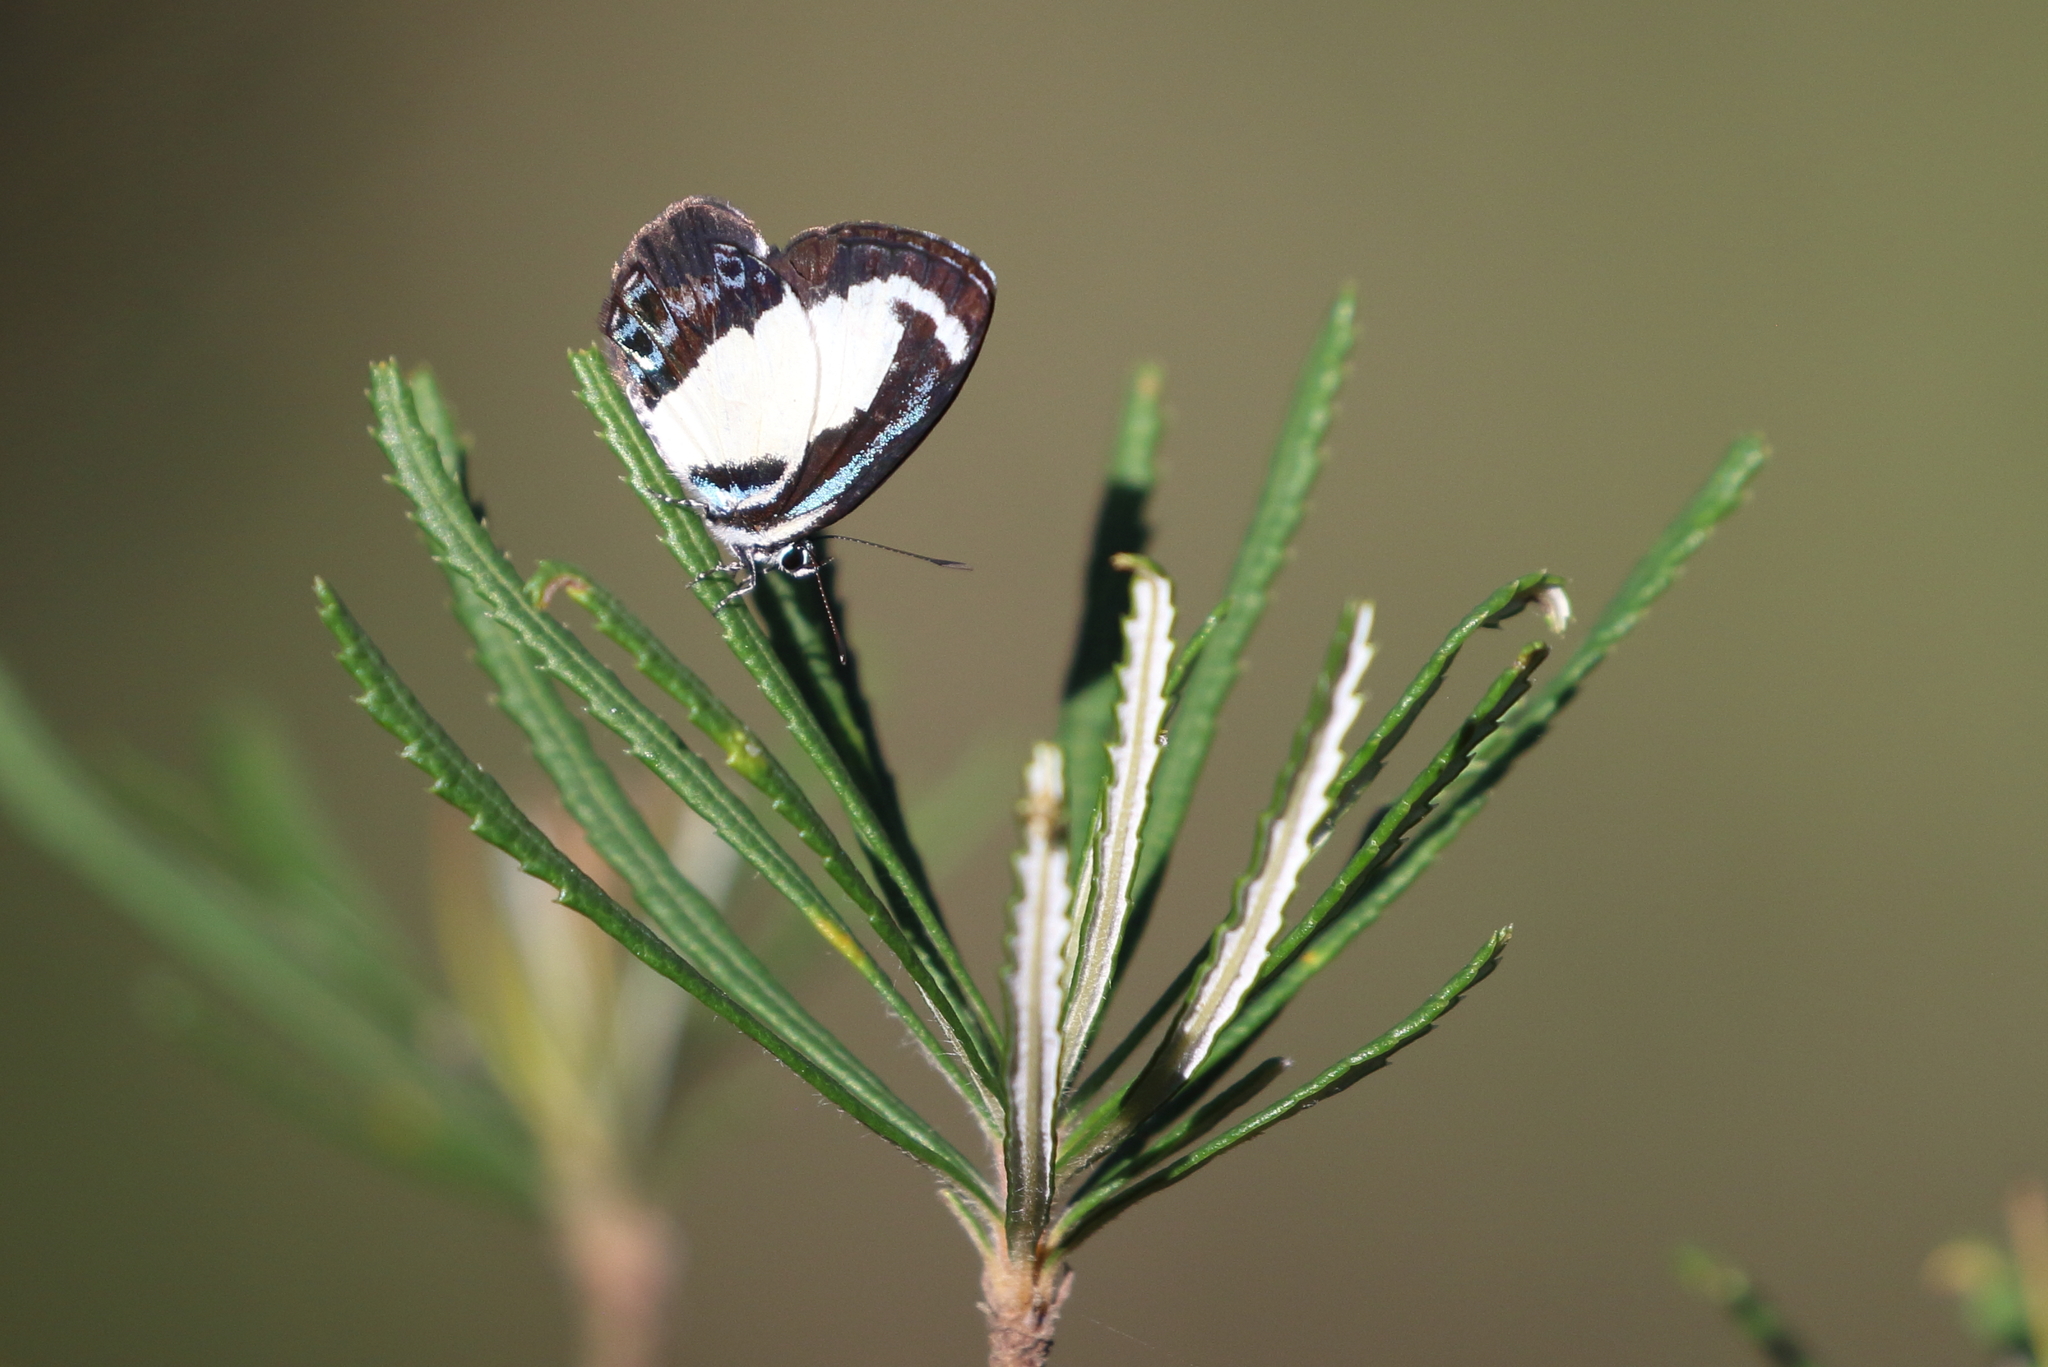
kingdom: Animalia
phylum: Arthropoda
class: Insecta
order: Lepidoptera
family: Lycaenidae
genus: Psychonotis
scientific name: Psychonotis caelius
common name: Small green banded blue
